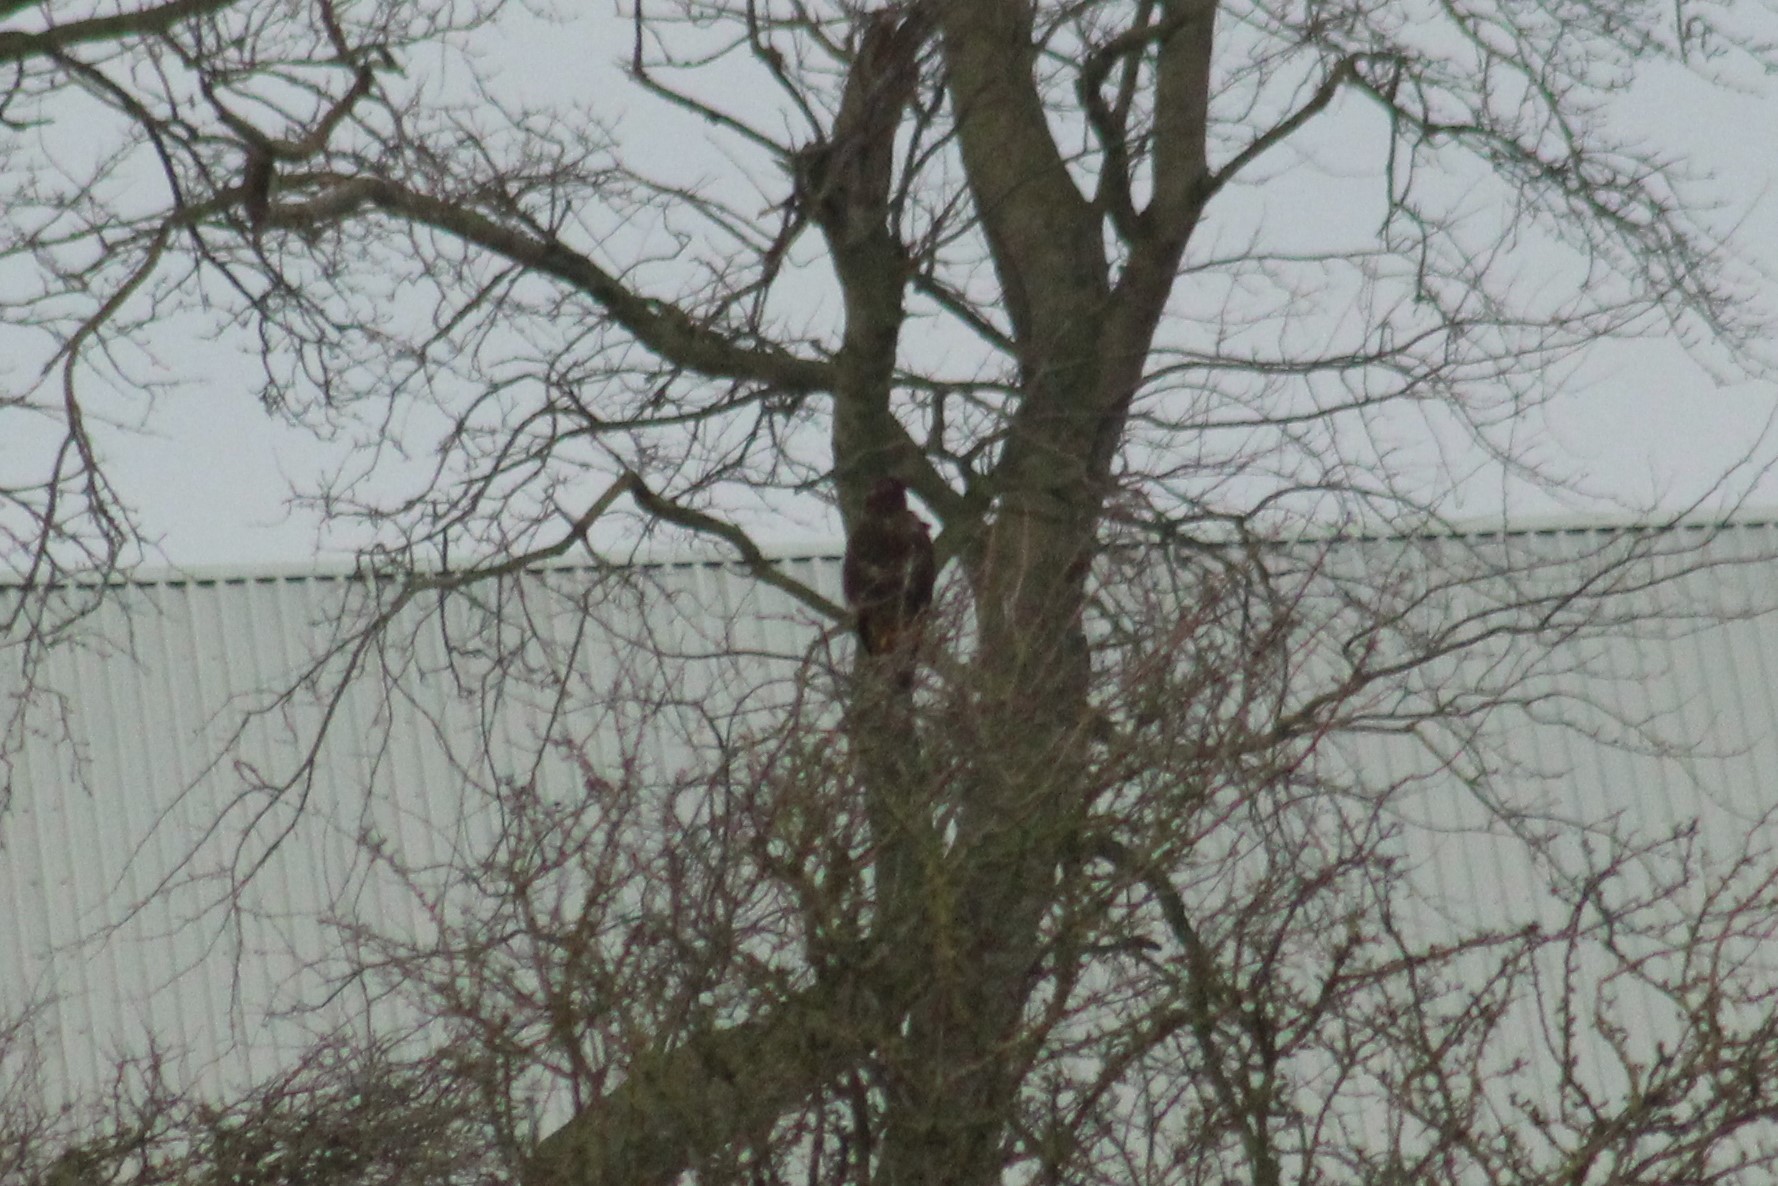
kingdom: Animalia
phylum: Chordata
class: Aves
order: Accipitriformes
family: Accipitridae
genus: Buteo
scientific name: Buteo buteo
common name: Common buzzard
